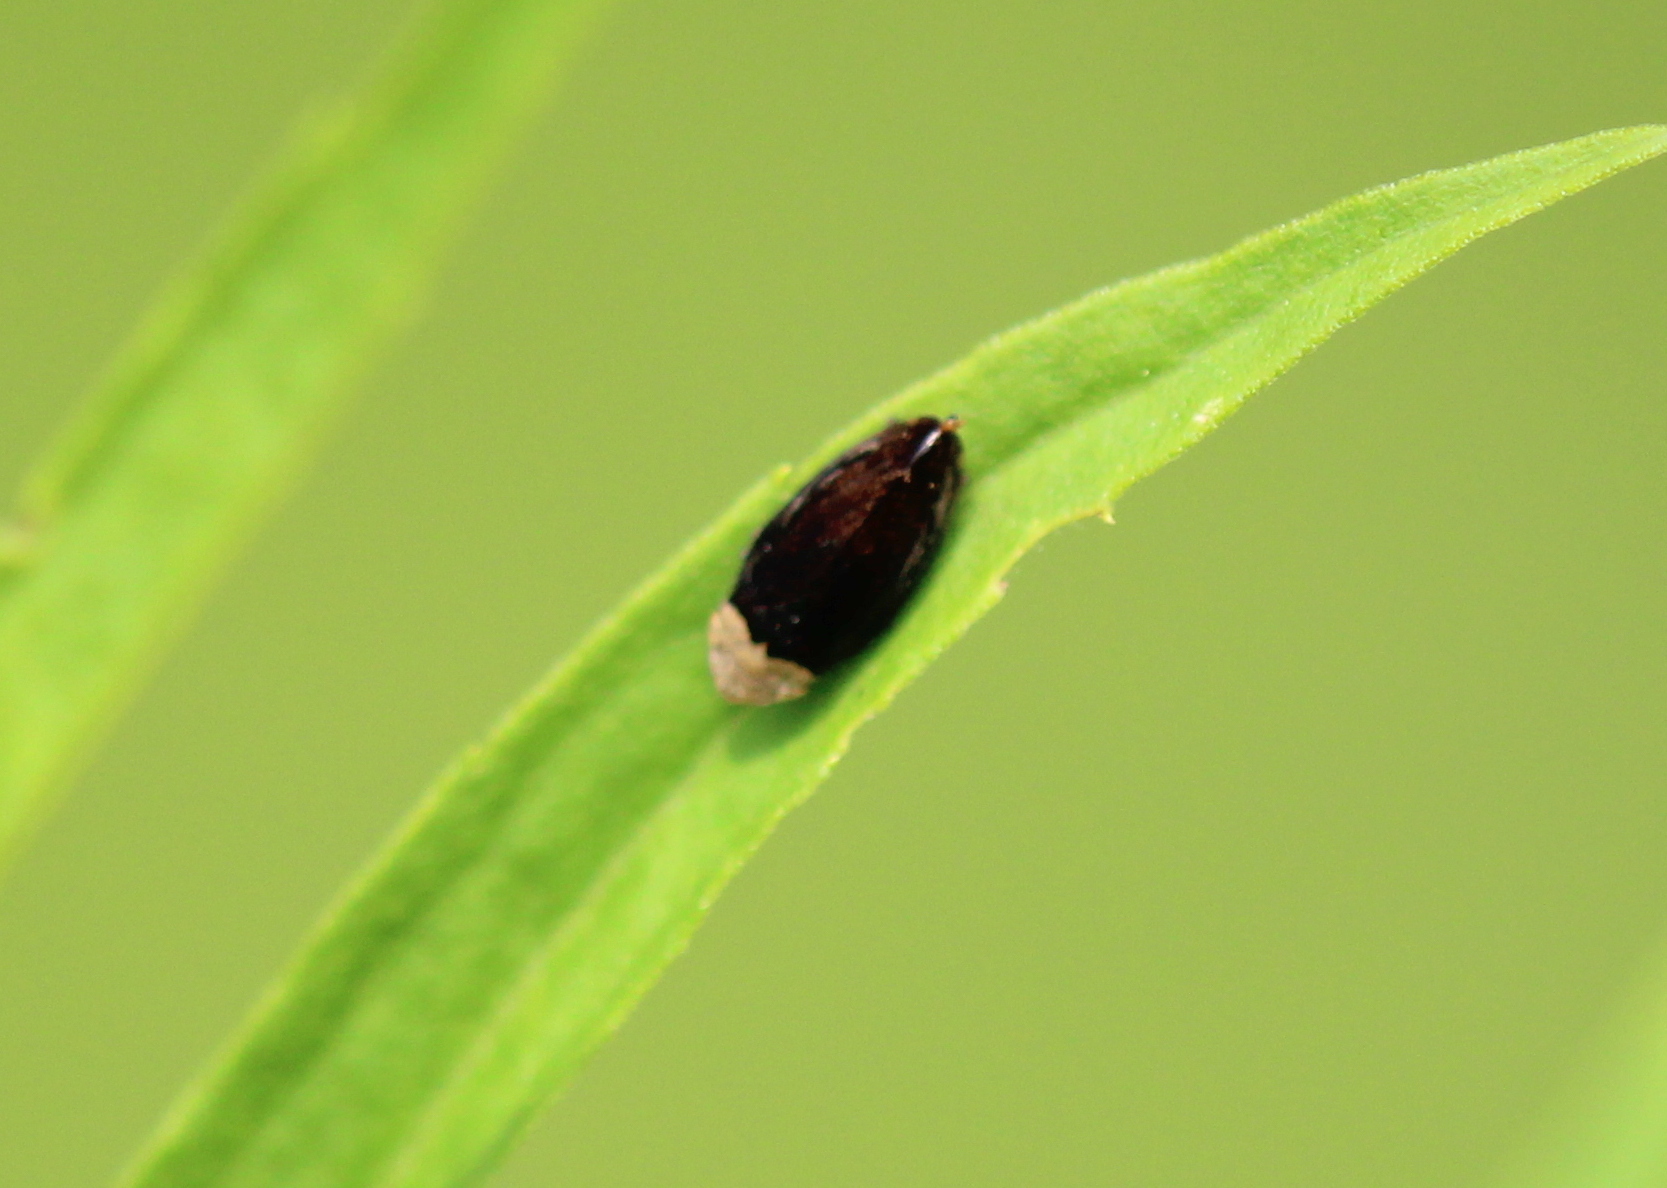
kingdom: Animalia
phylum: Arthropoda
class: Insecta
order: Hemiptera
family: Aphrophoridae
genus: Philaenus
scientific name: Philaenus spumarius
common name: Meadow spittlebug
